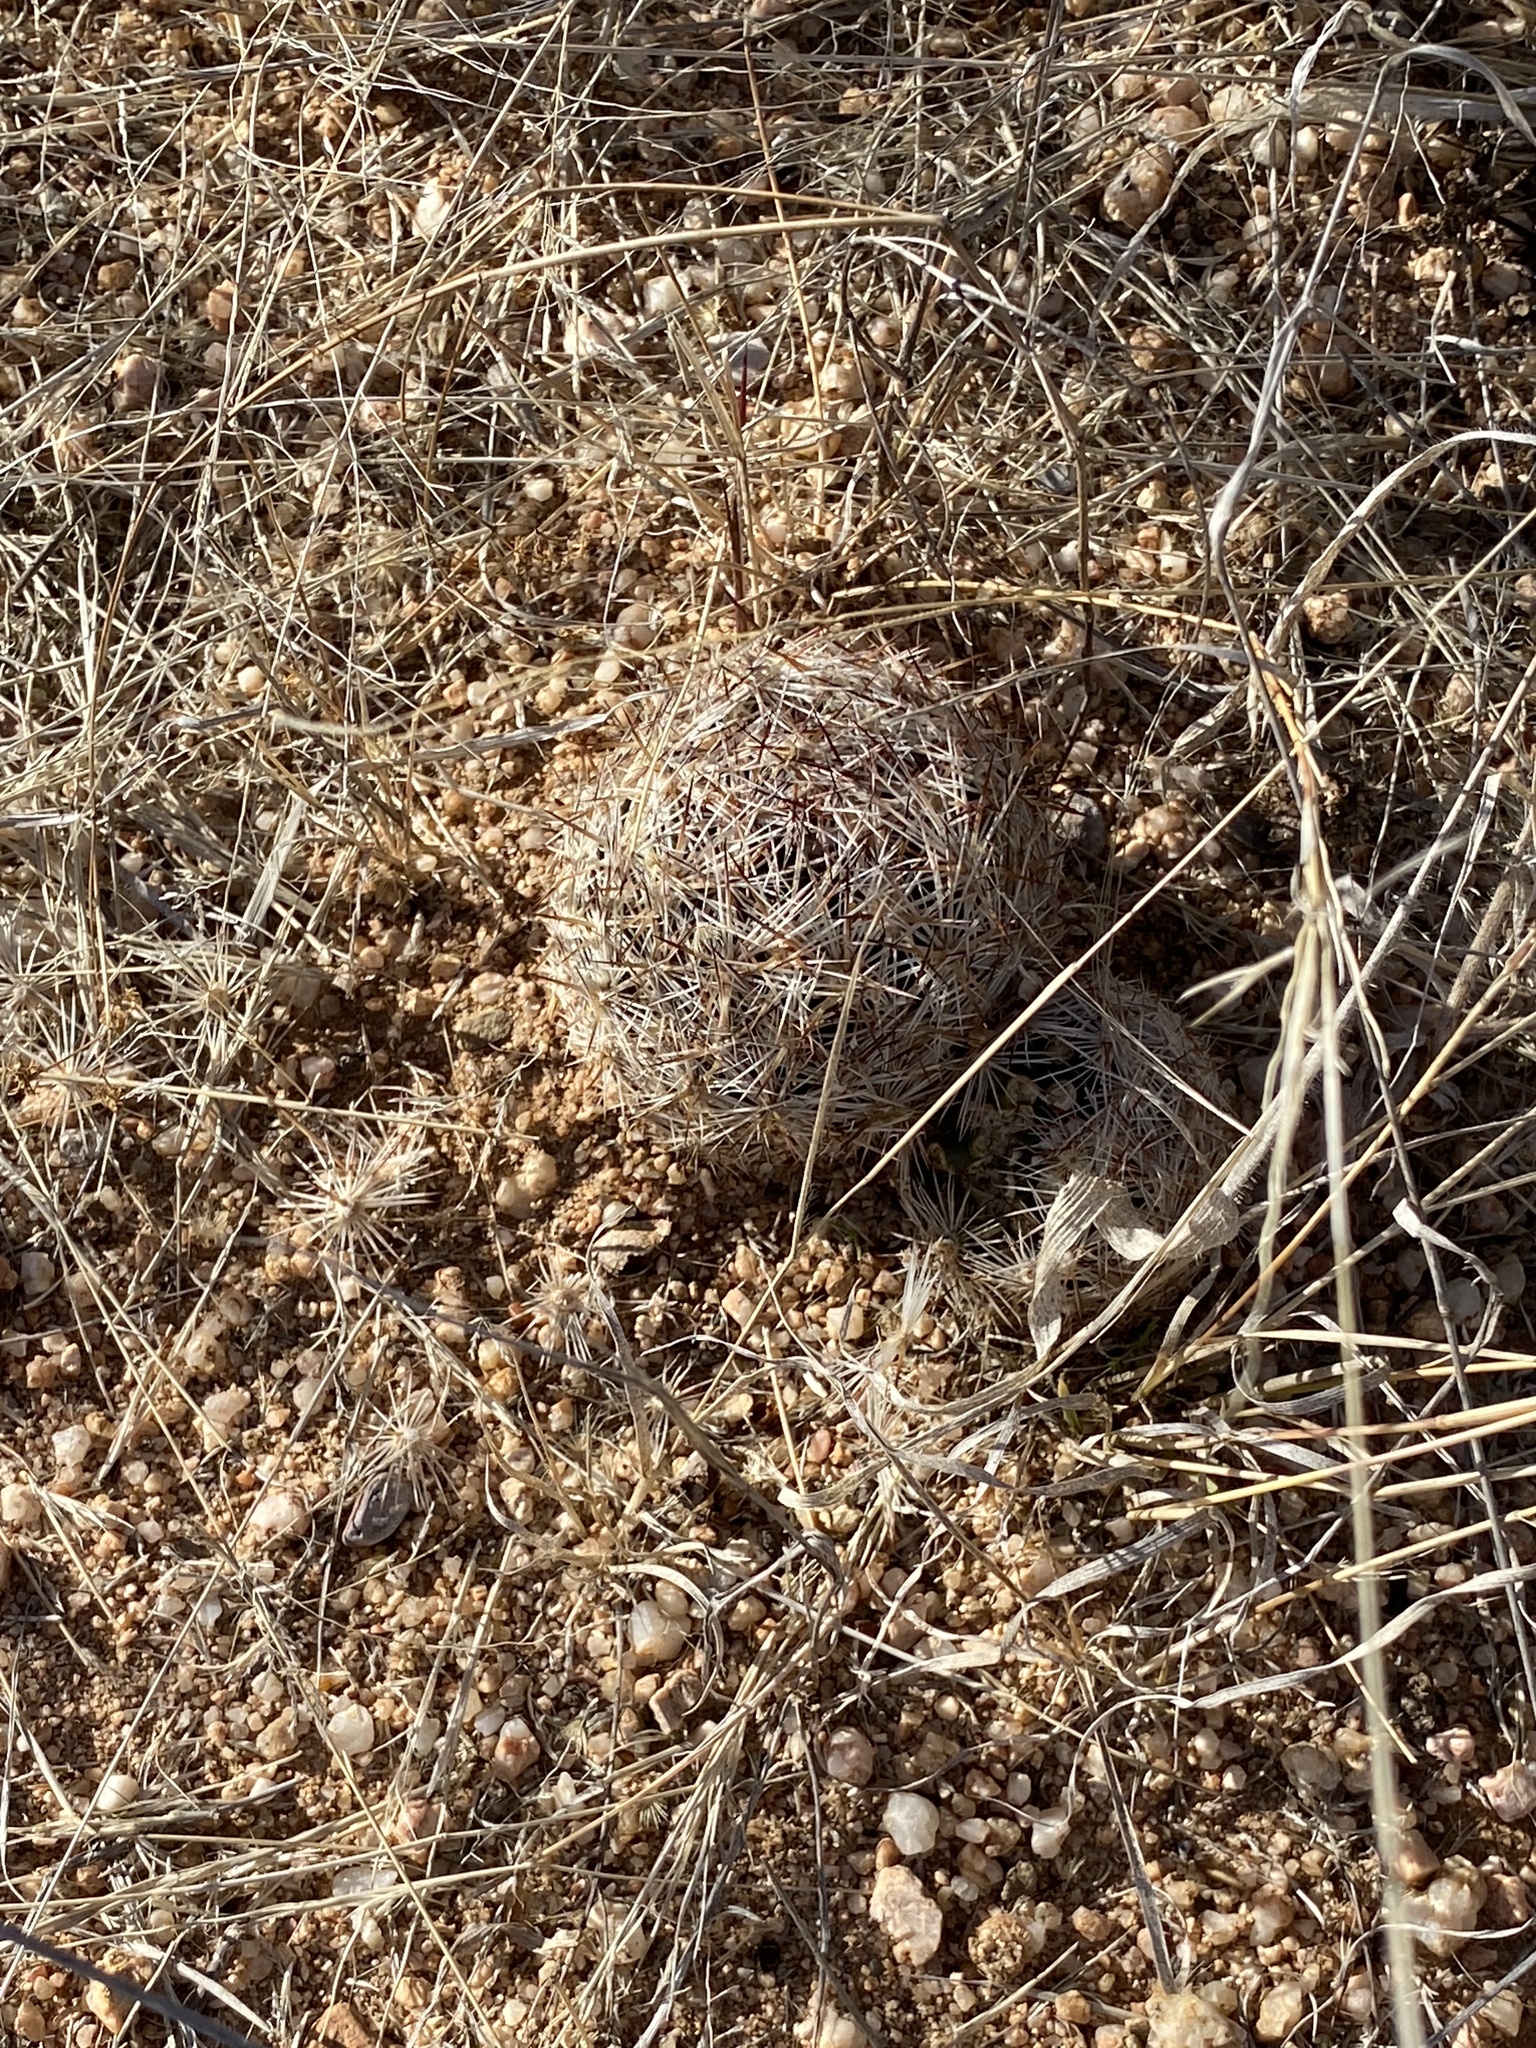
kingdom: Plantae
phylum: Tracheophyta
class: Magnoliopsida
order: Caryophyllales
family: Cactaceae
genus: Sclerocactus
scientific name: Sclerocactus johnsonii
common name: Eight-spine fishhook cactus
